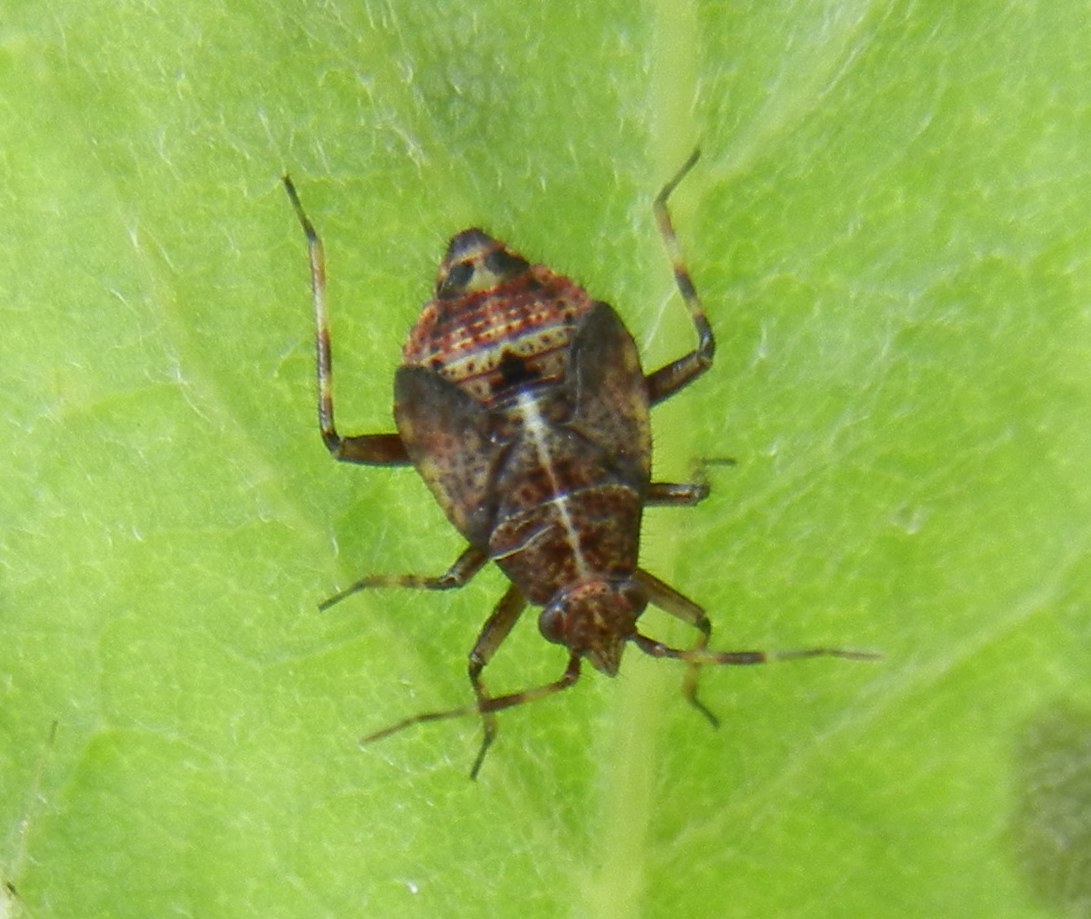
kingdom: Animalia
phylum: Arthropoda
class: Insecta
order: Hemiptera
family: Miridae
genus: Deraeocoris
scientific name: Deraeocoris flavilinea
